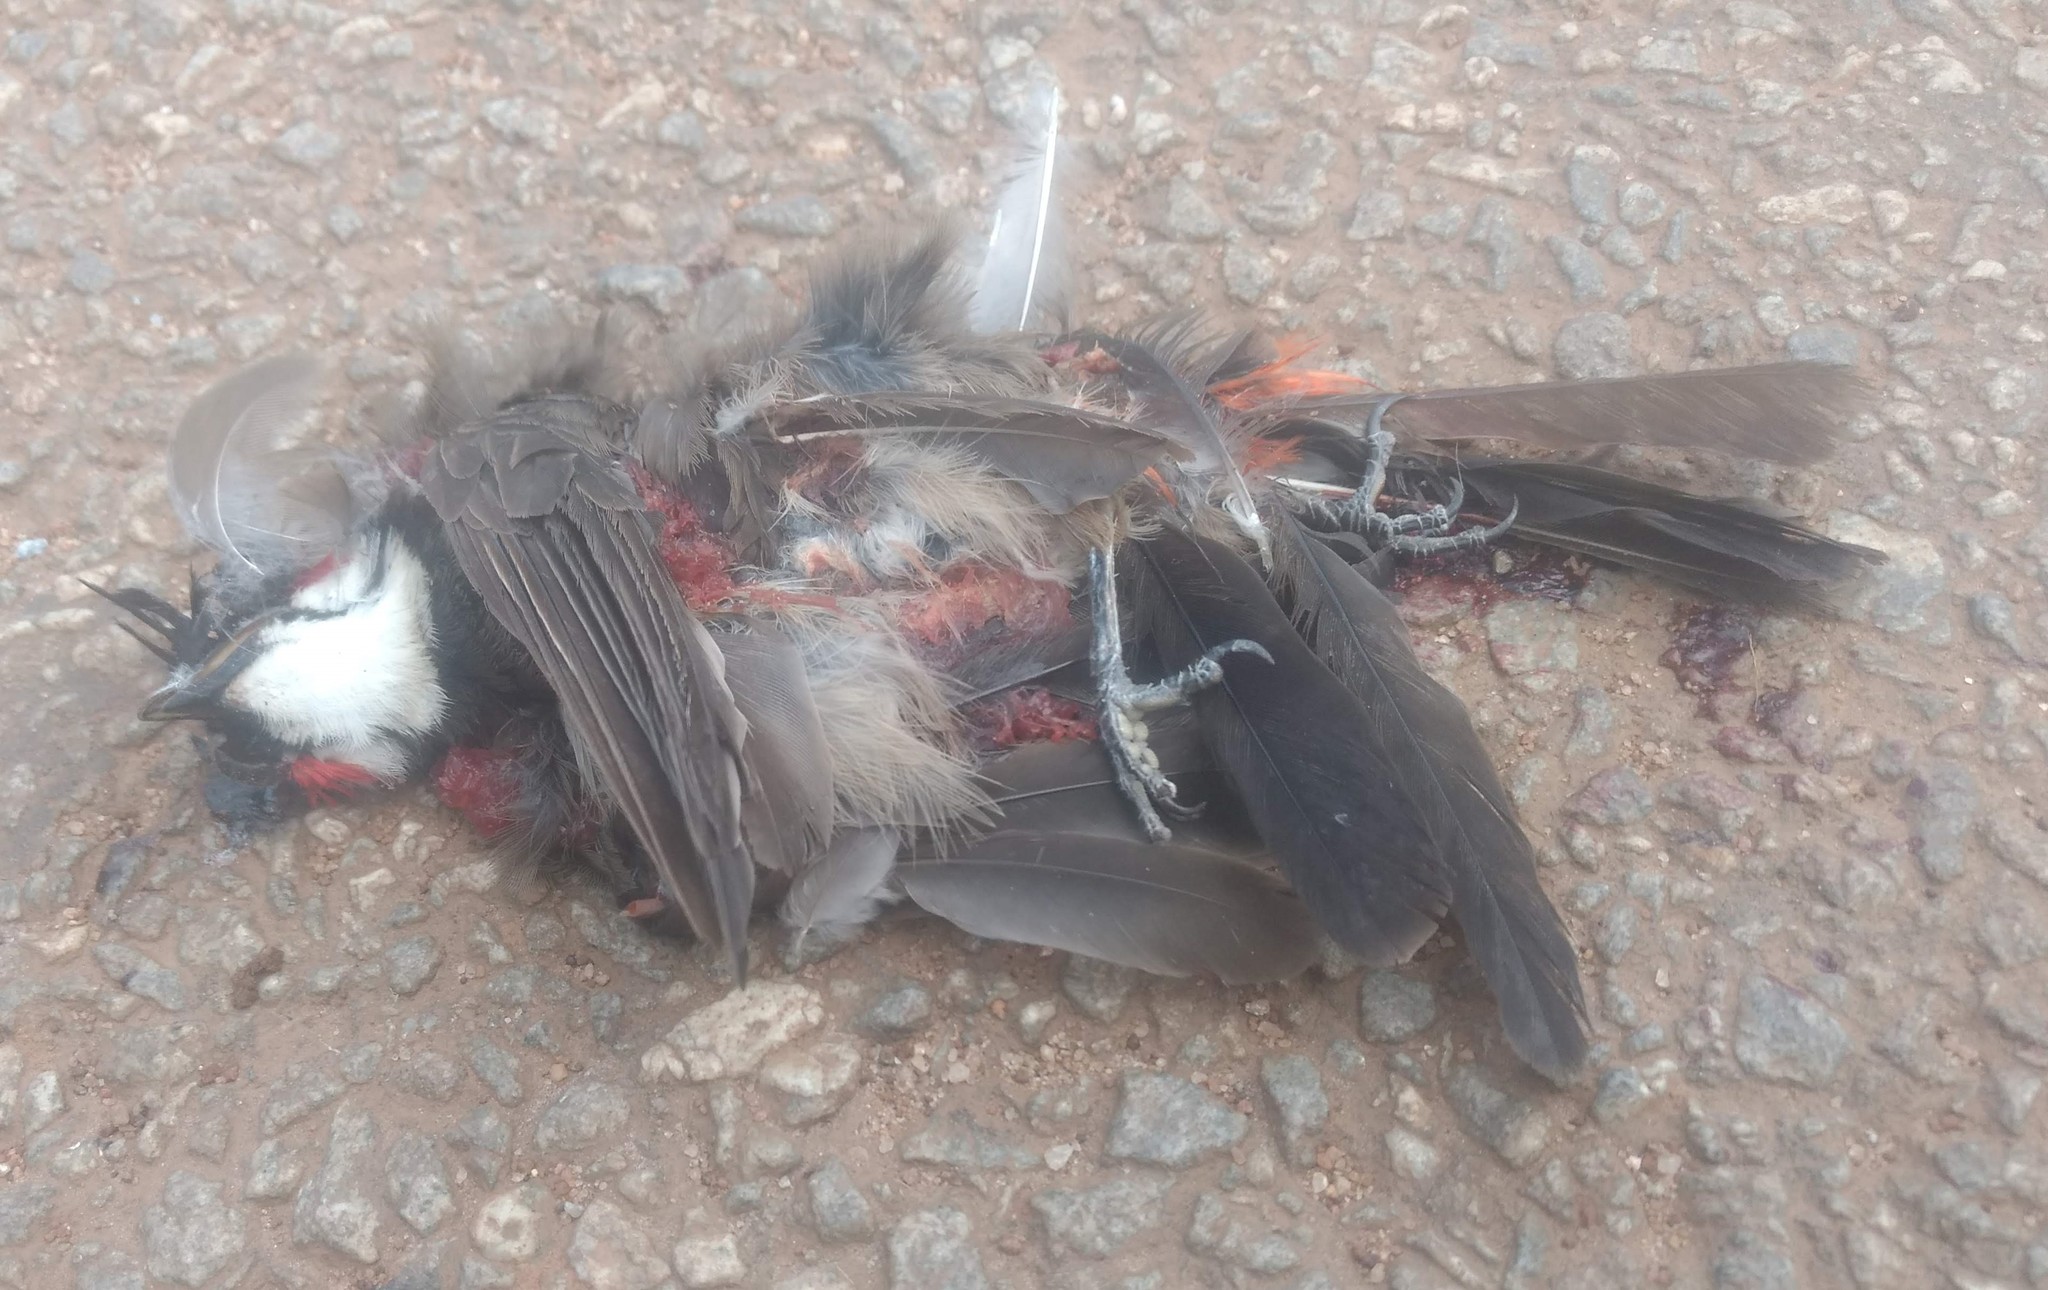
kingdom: Animalia
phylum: Chordata
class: Aves
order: Passeriformes
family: Pycnonotidae
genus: Pycnonotus
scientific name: Pycnonotus jocosus
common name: Red-whiskered bulbul
